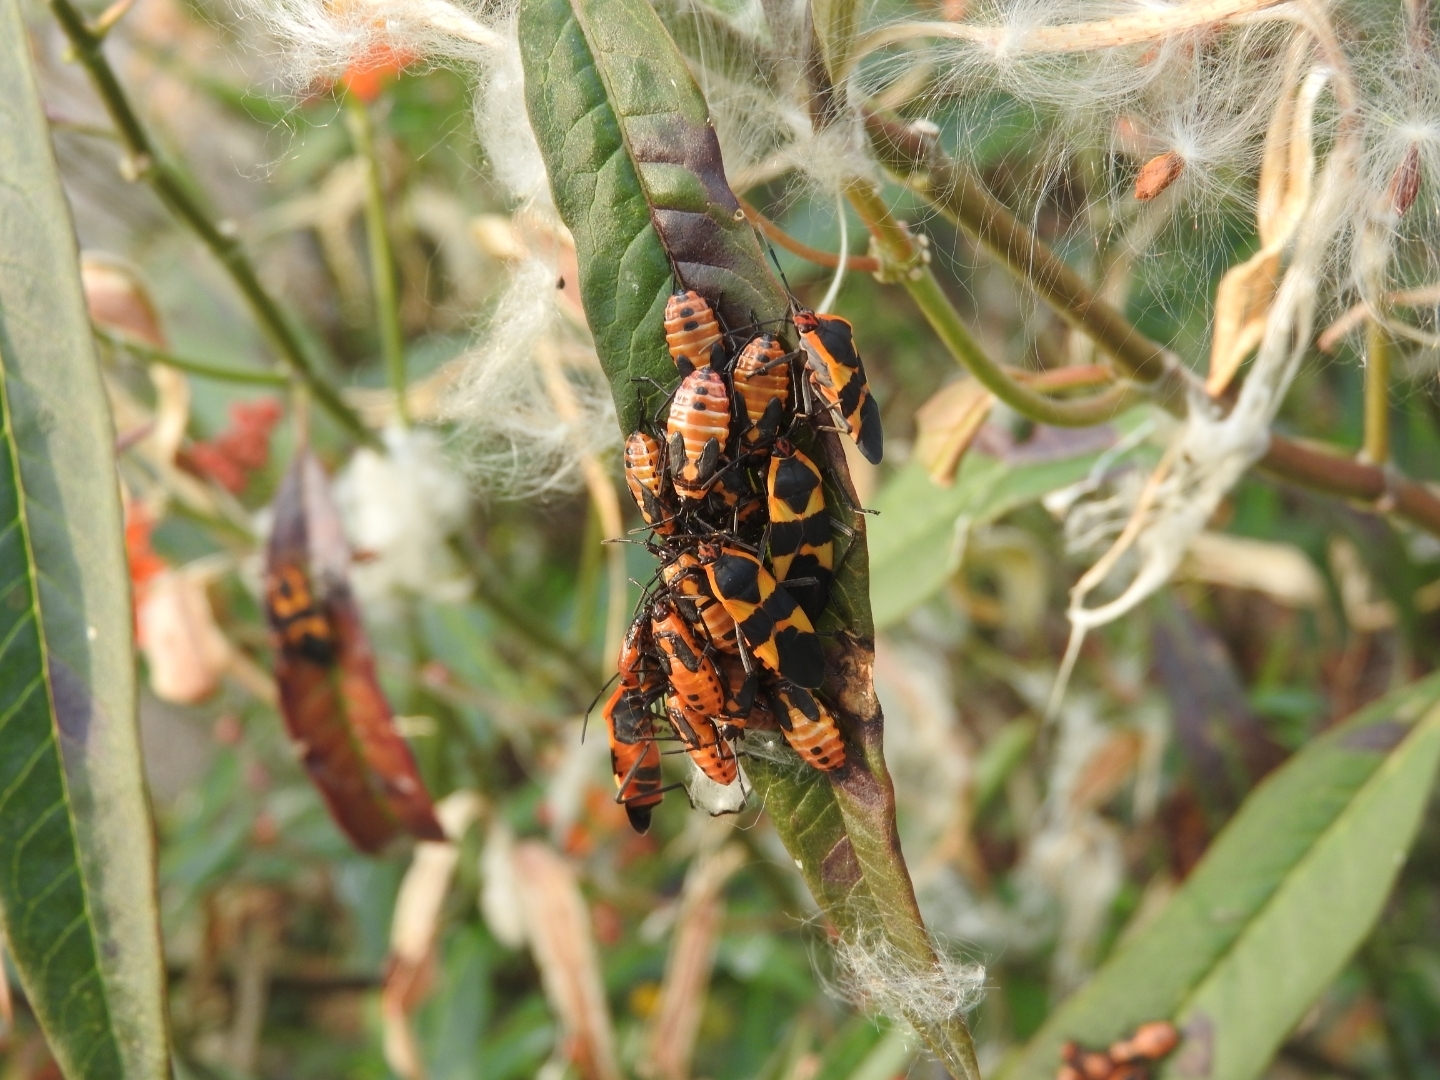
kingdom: Animalia
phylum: Arthropoda
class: Insecta
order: Hemiptera
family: Lygaeidae
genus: Oncopeltus
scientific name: Oncopeltus fasciatus
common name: Large milkweed bug
